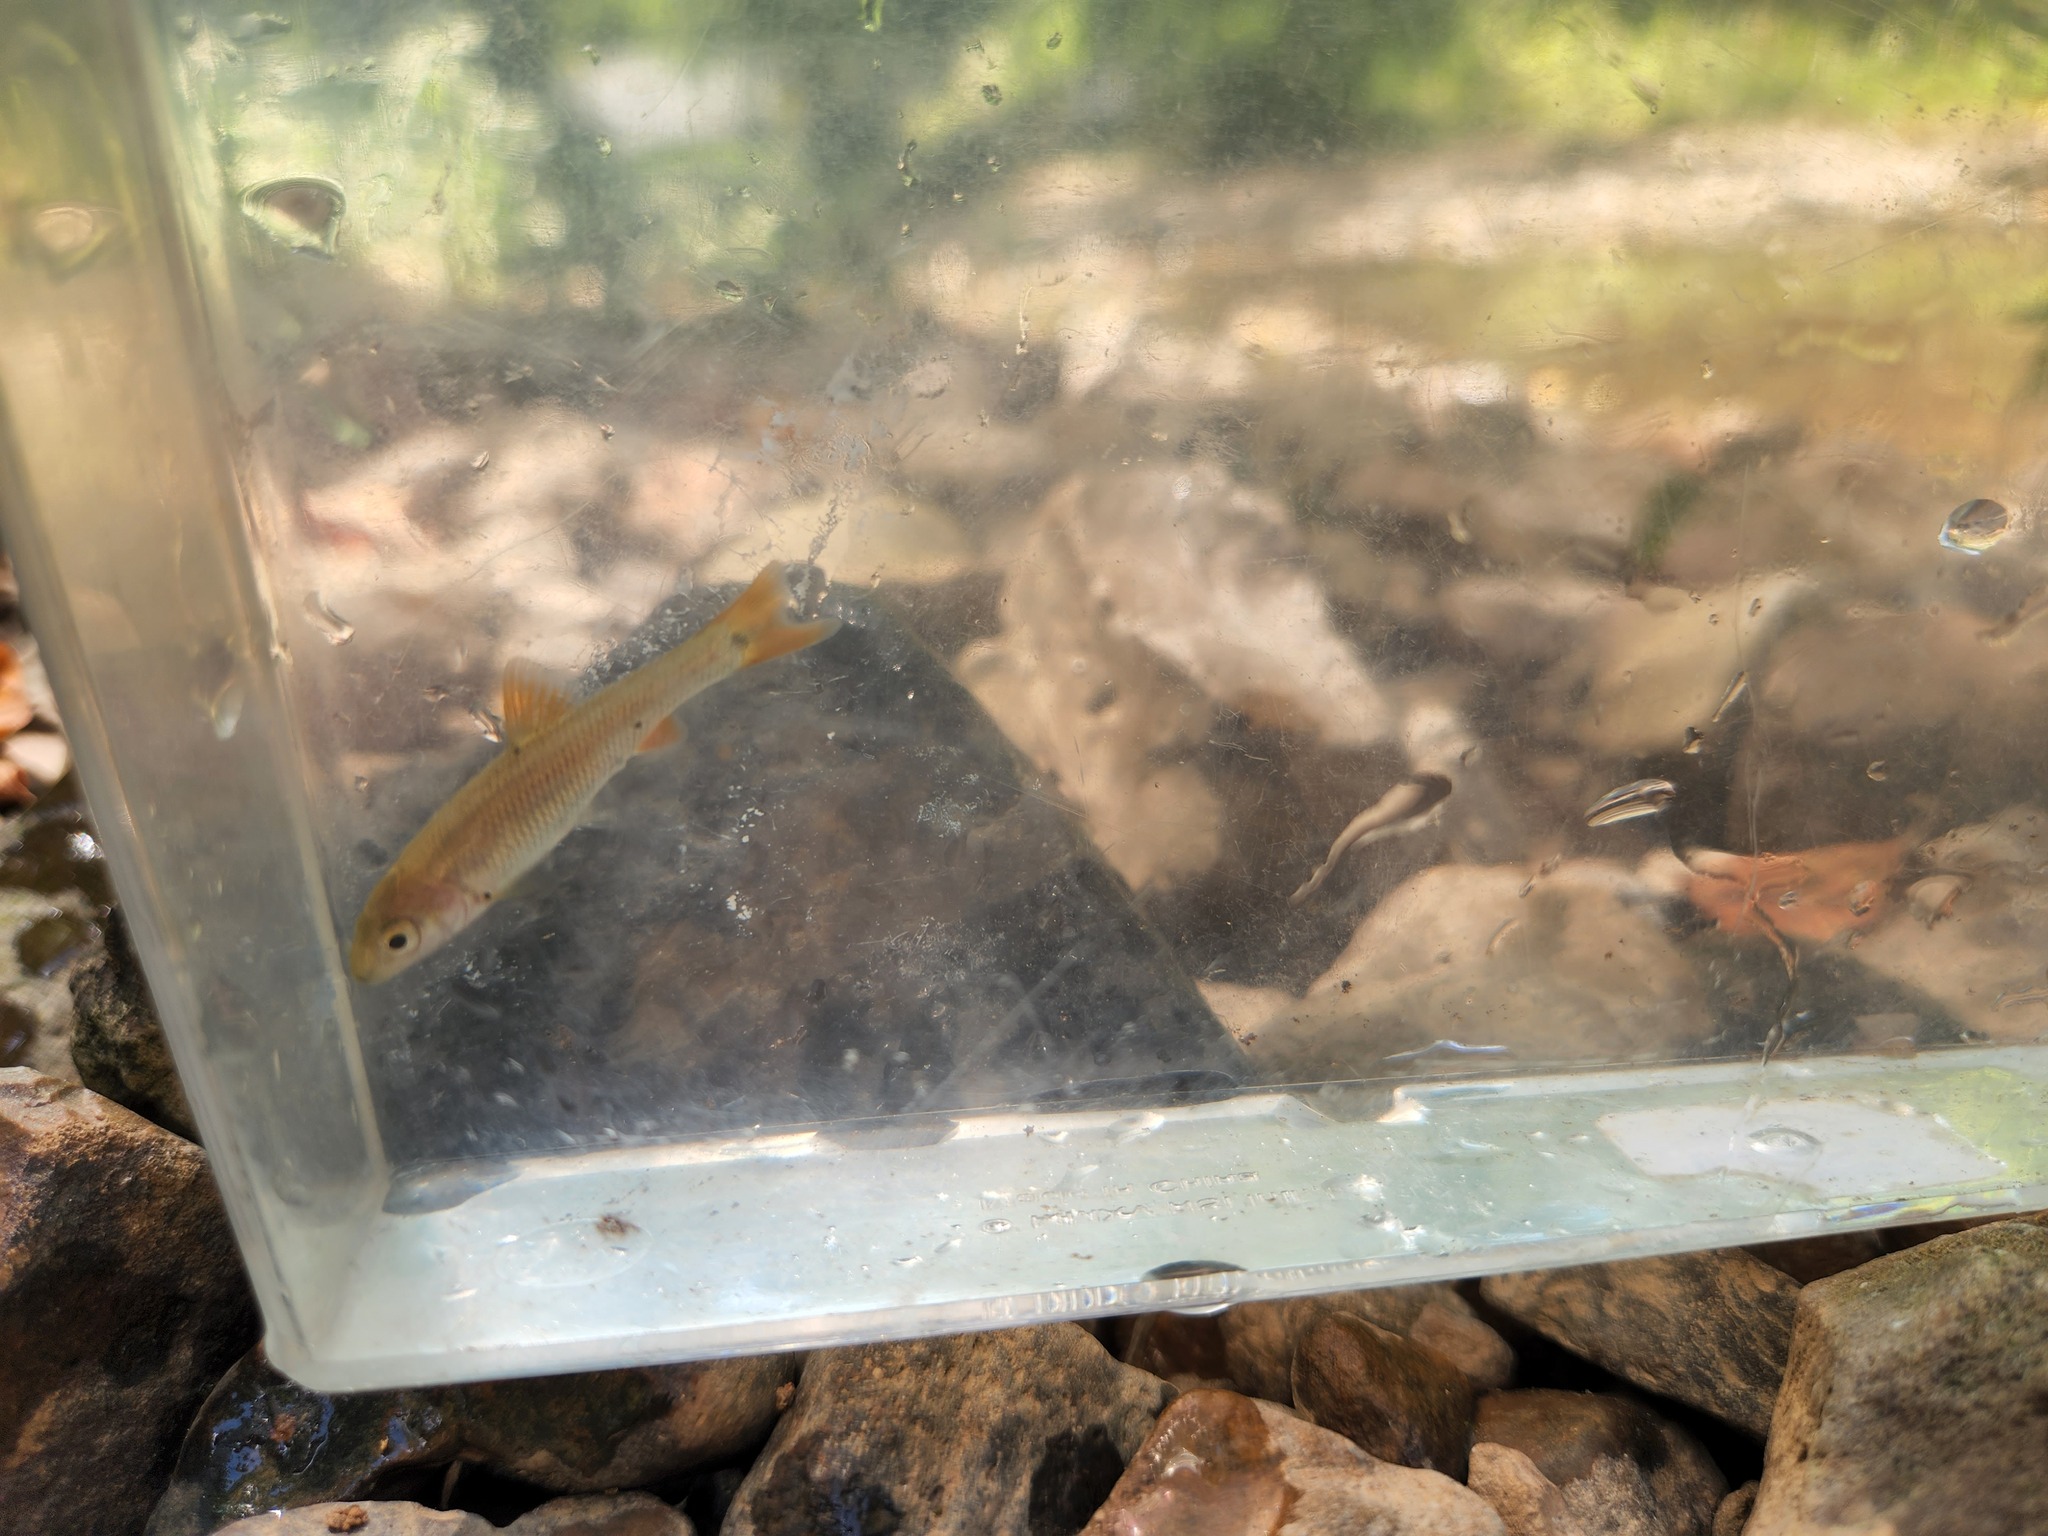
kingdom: Animalia
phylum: Chordata
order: Cypriniformes
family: Cyprinidae
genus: Nocomis
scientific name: Nocomis effusus
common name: Redtail chub
